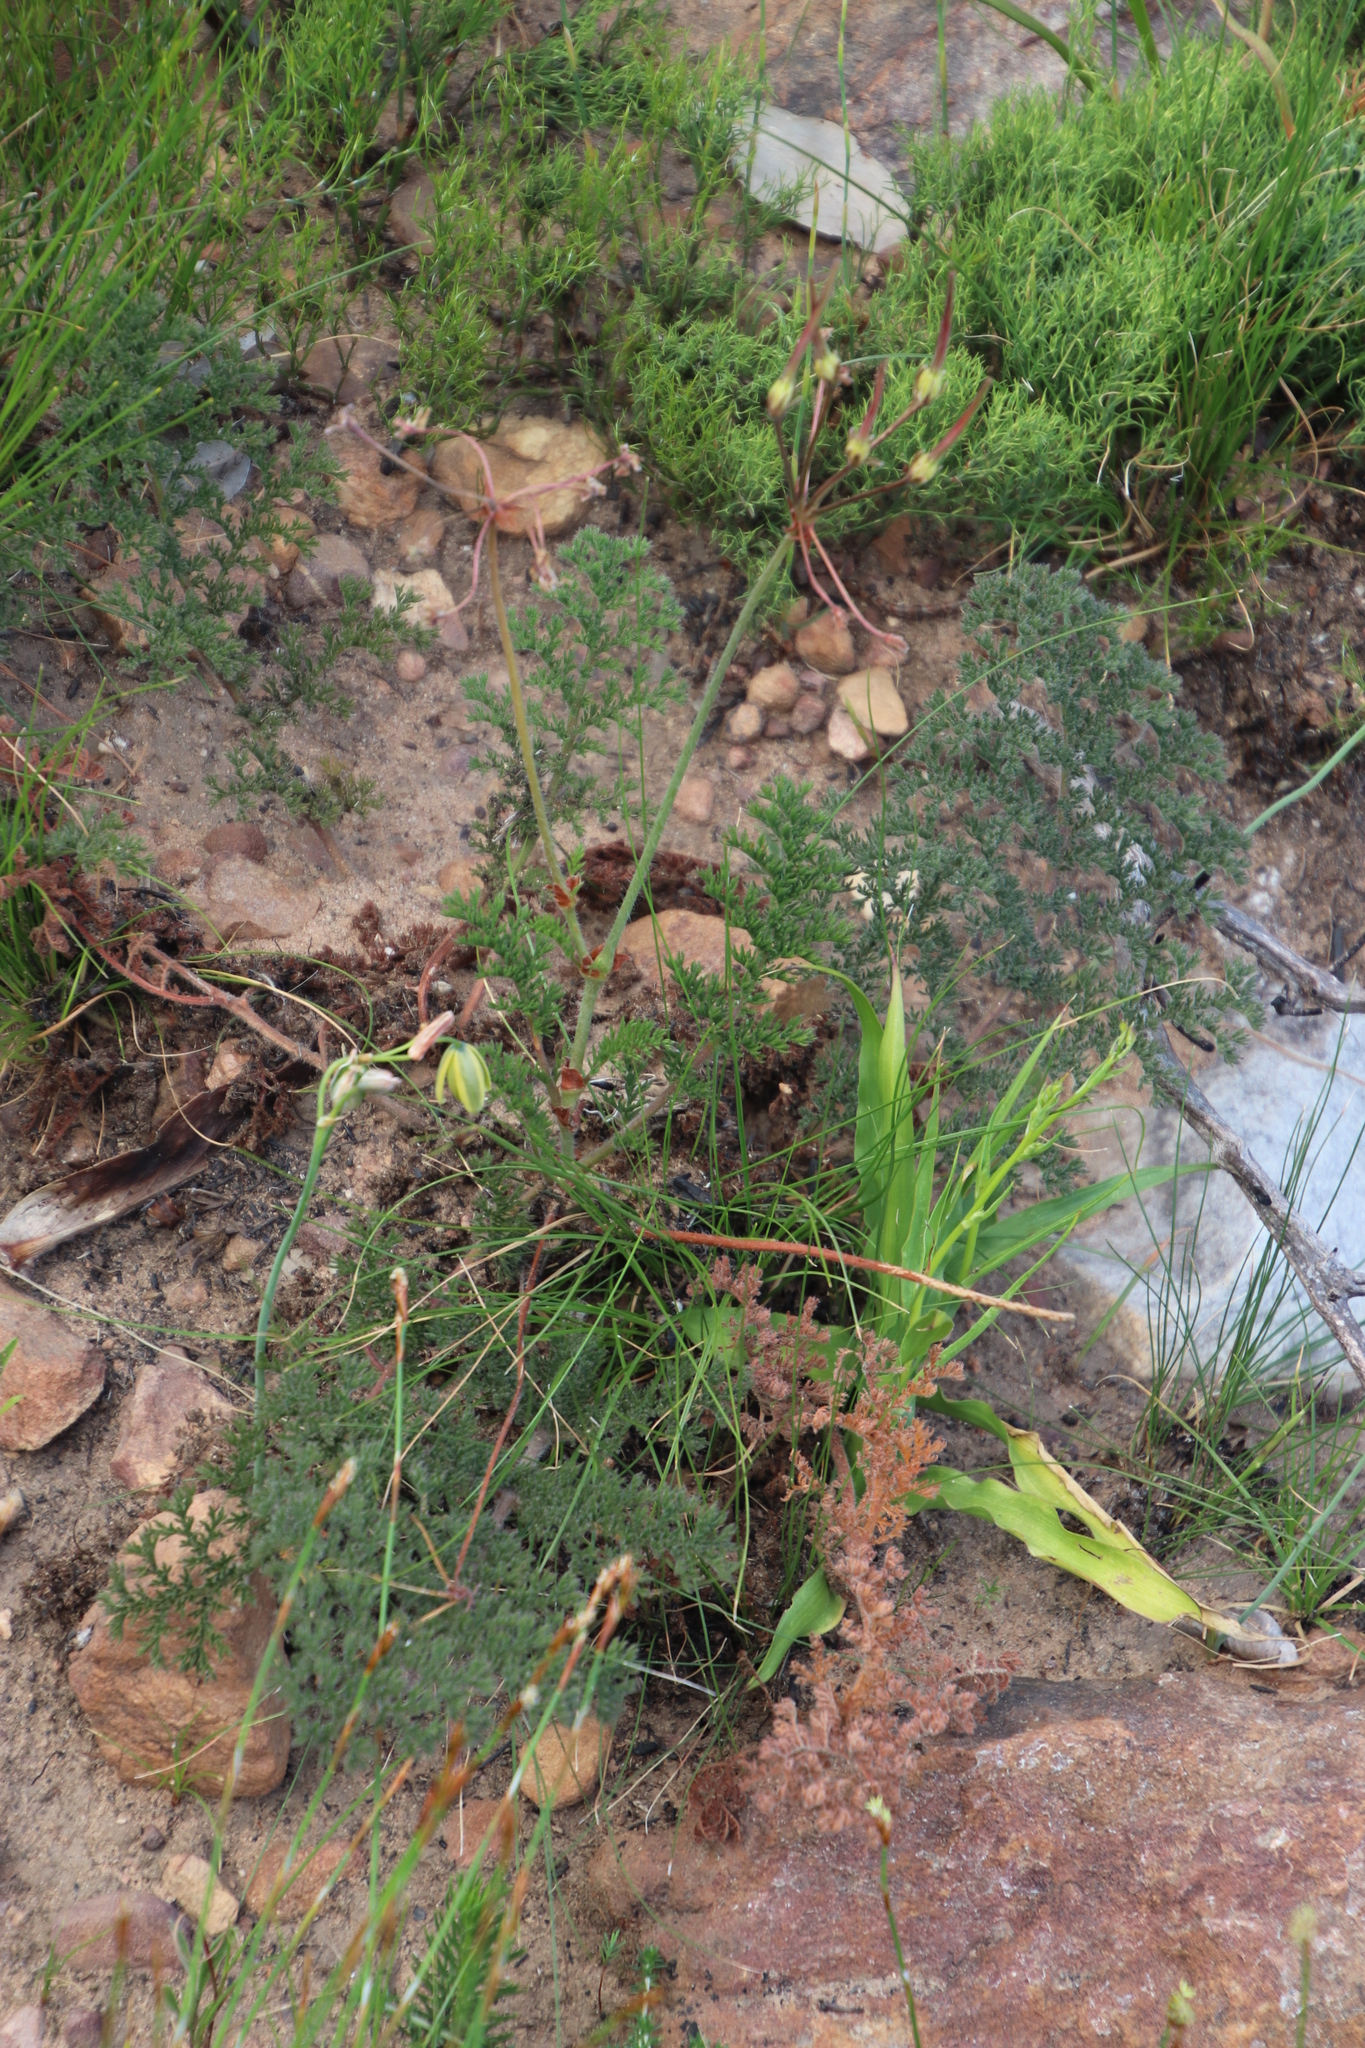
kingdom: Plantae
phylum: Tracheophyta
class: Magnoliopsida
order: Geraniales
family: Geraniaceae
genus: Pelargonium
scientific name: Pelargonium triste
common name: Night-scent pelargonium
